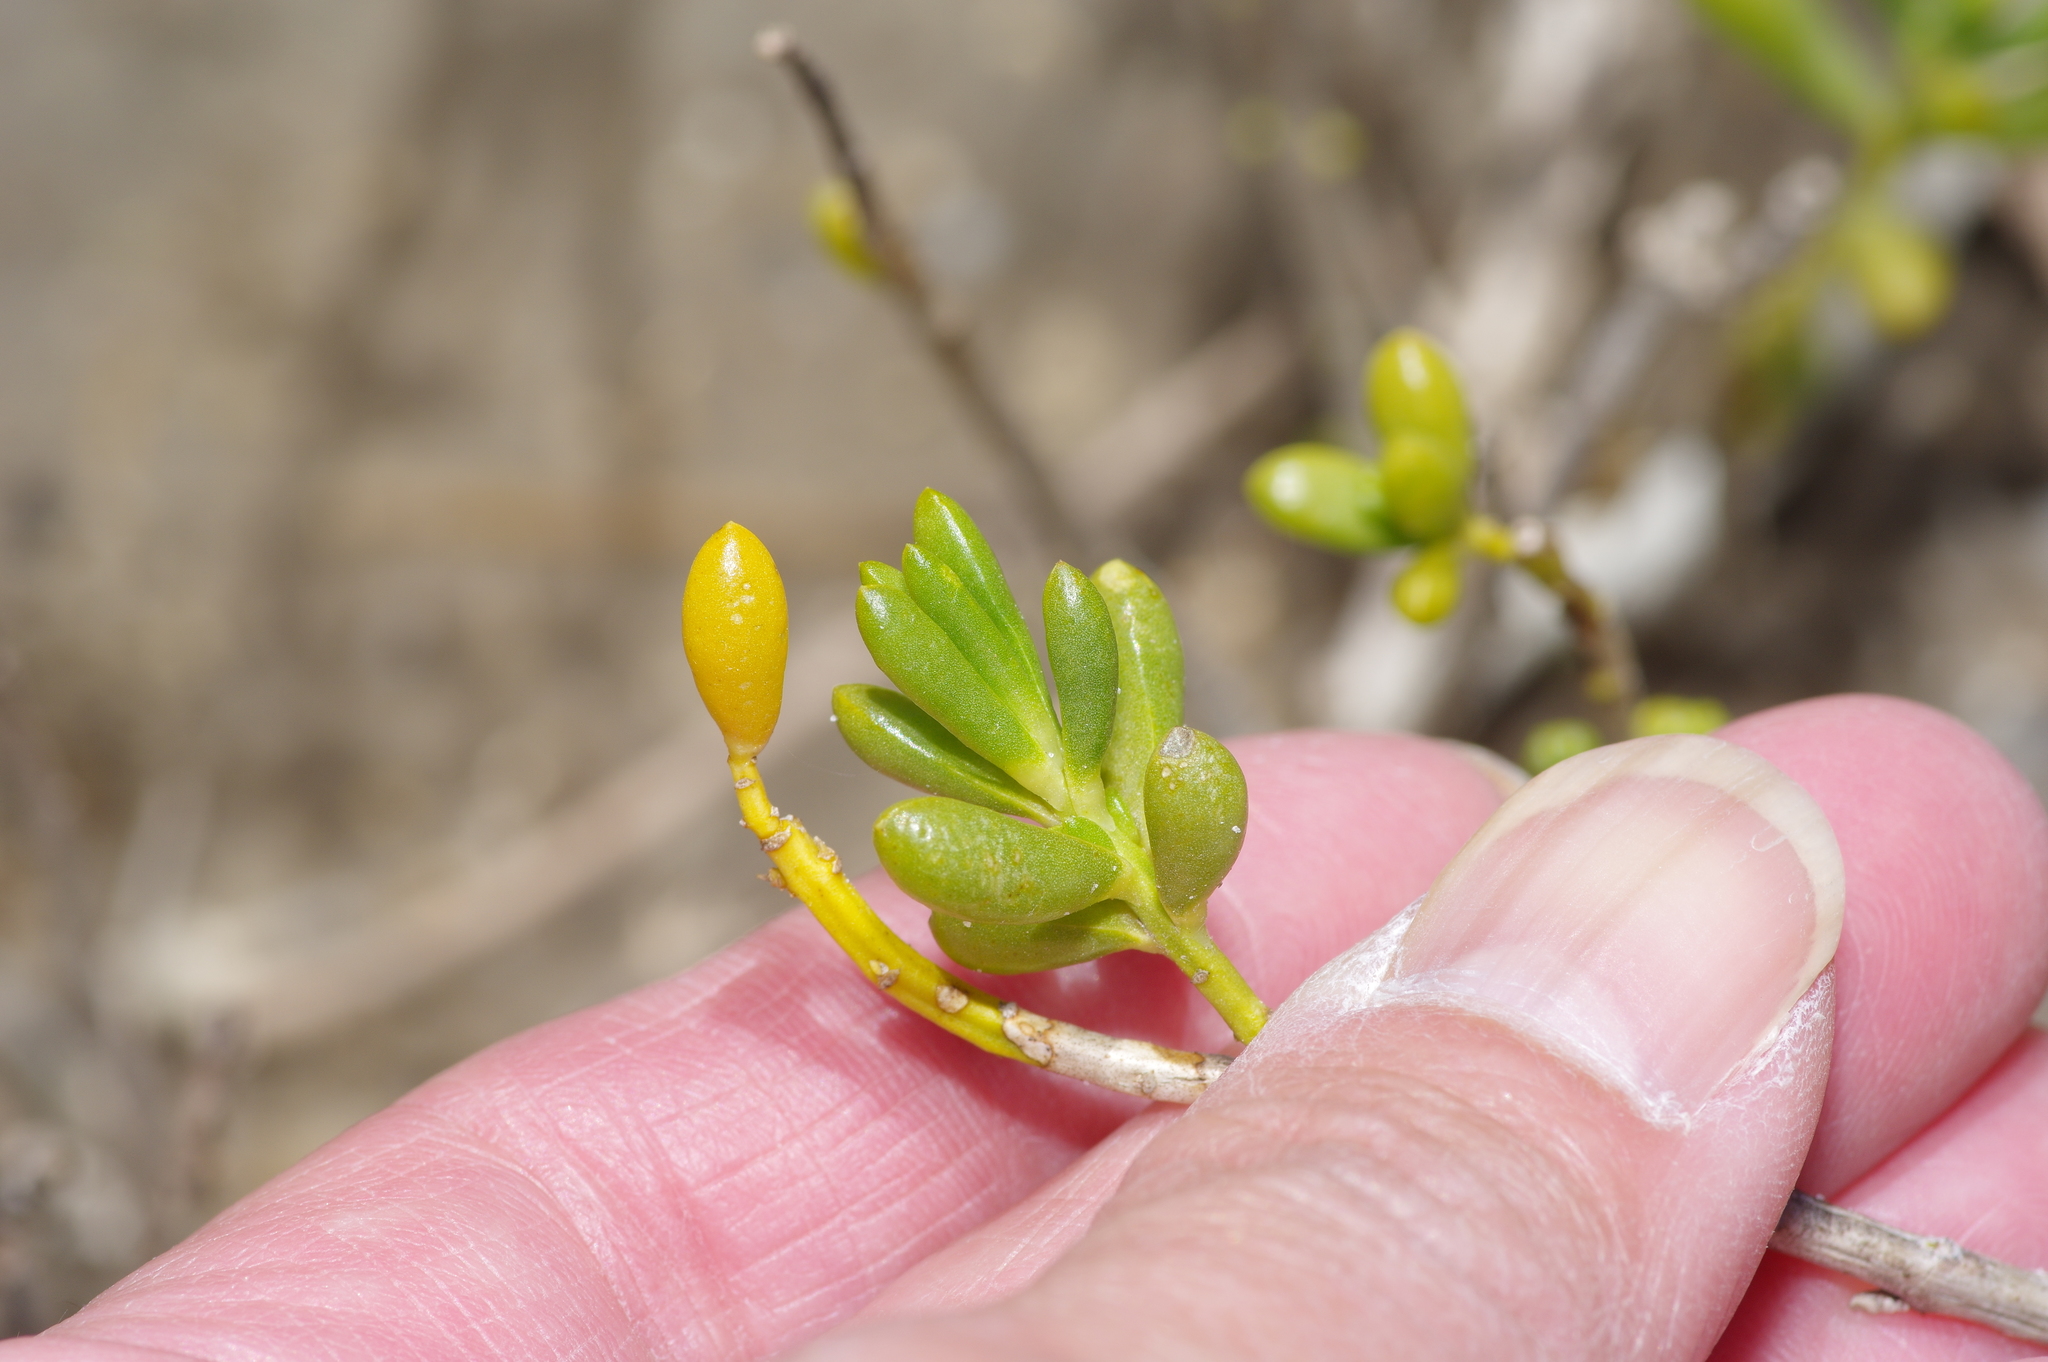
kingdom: Plantae
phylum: Tracheophyta
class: Magnoliopsida
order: Brassicales
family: Bataceae
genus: Batis
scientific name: Batis maritima
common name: Turtleweed
